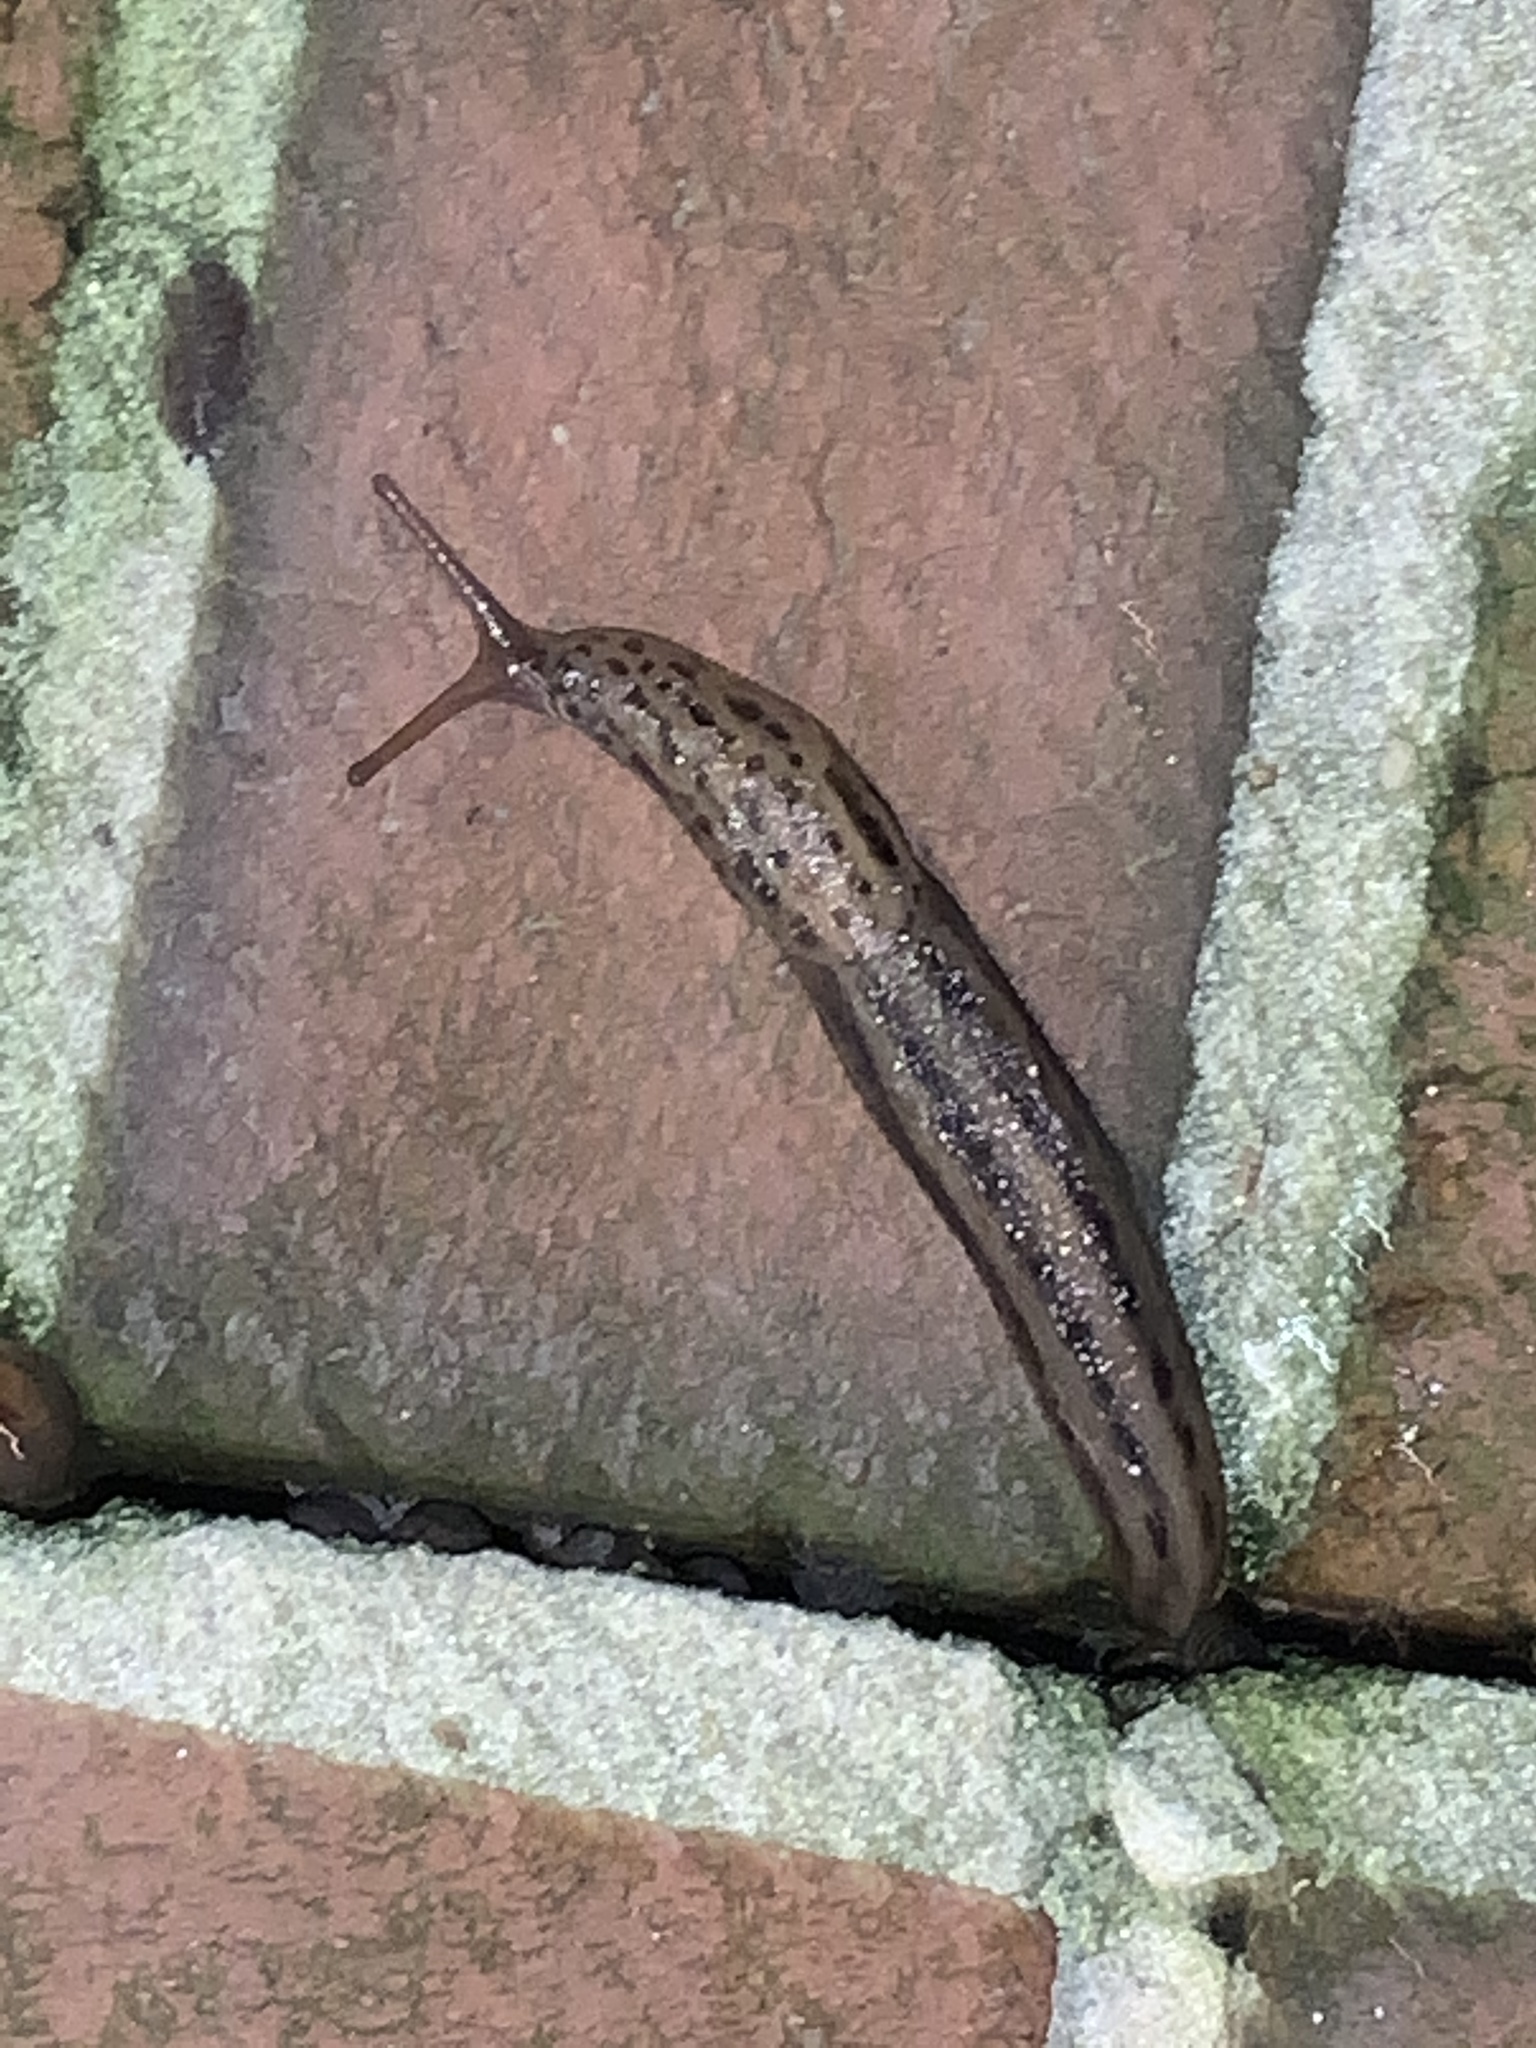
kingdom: Animalia
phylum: Mollusca
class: Gastropoda
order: Stylommatophora
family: Limacidae
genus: Limax
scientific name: Limax maximus
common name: Great grey slug
